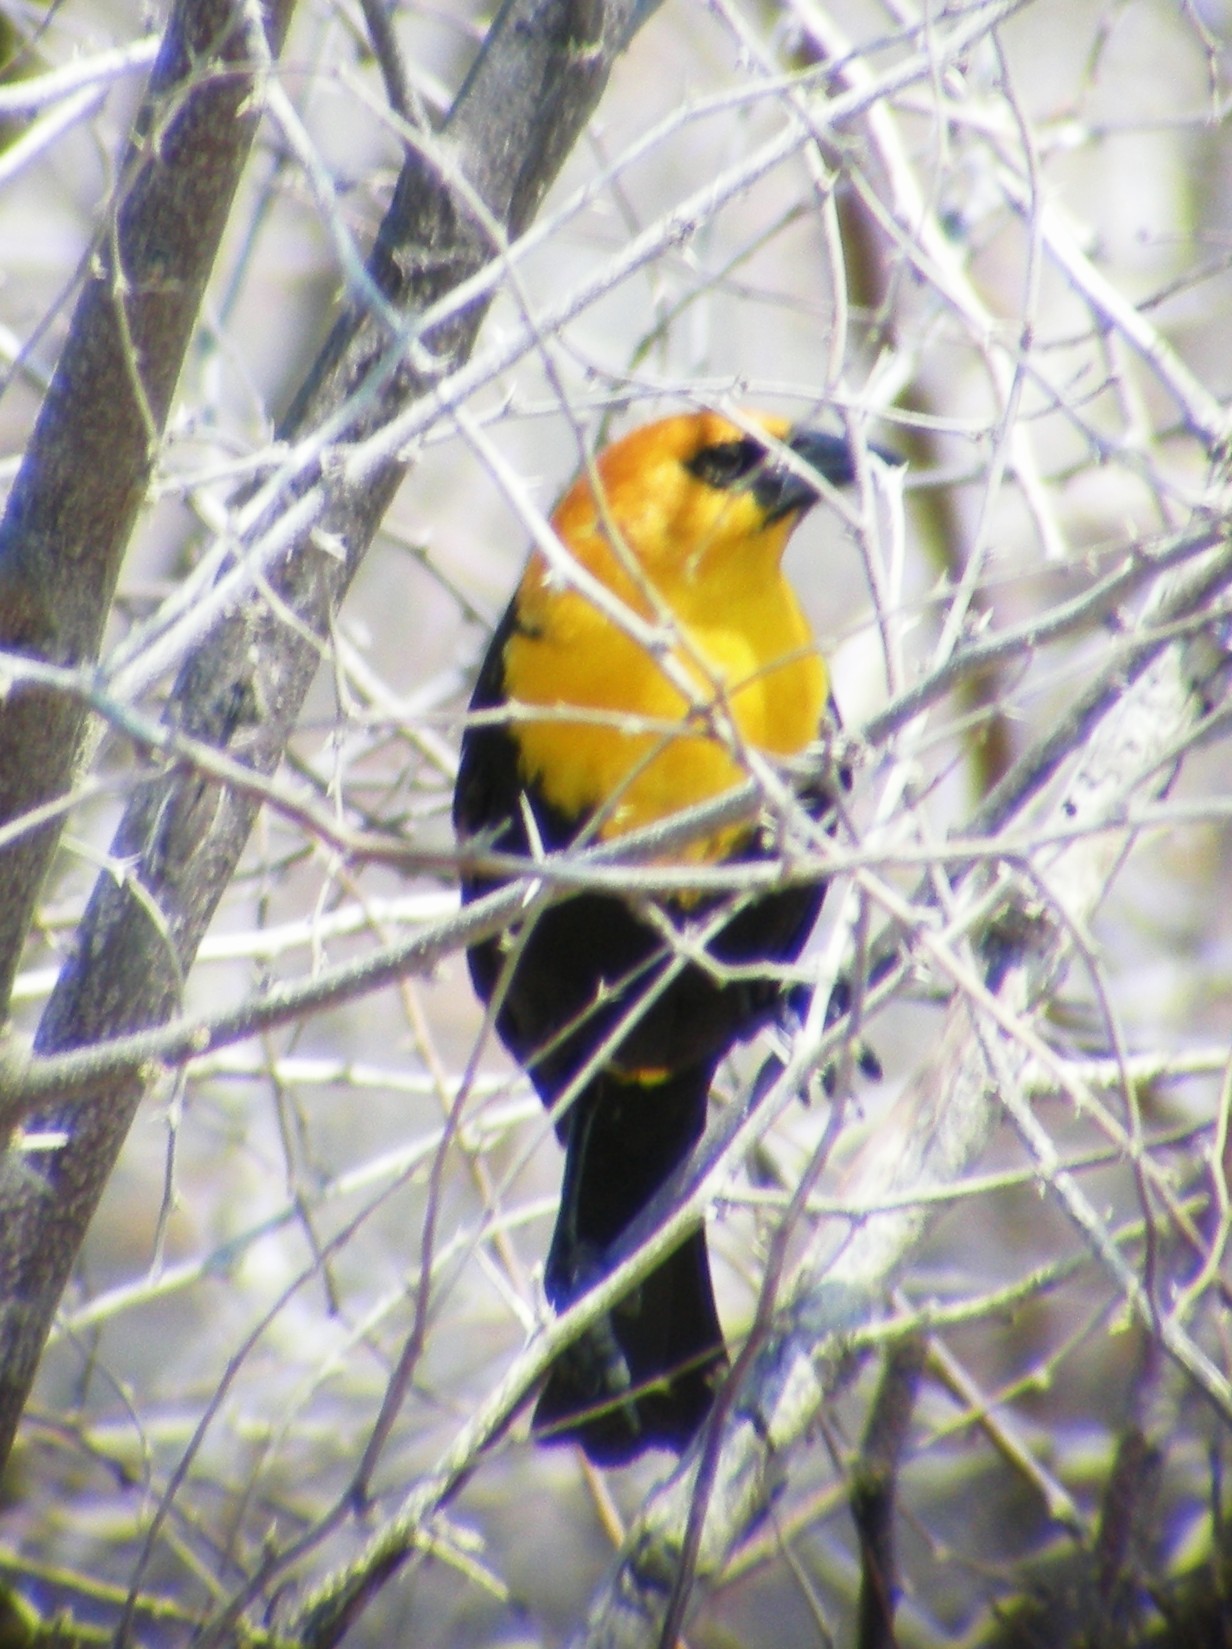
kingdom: Animalia
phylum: Chordata
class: Aves
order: Passeriformes
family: Icteridae
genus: Xanthocephalus
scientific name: Xanthocephalus xanthocephalus
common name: Yellow-headed blackbird
